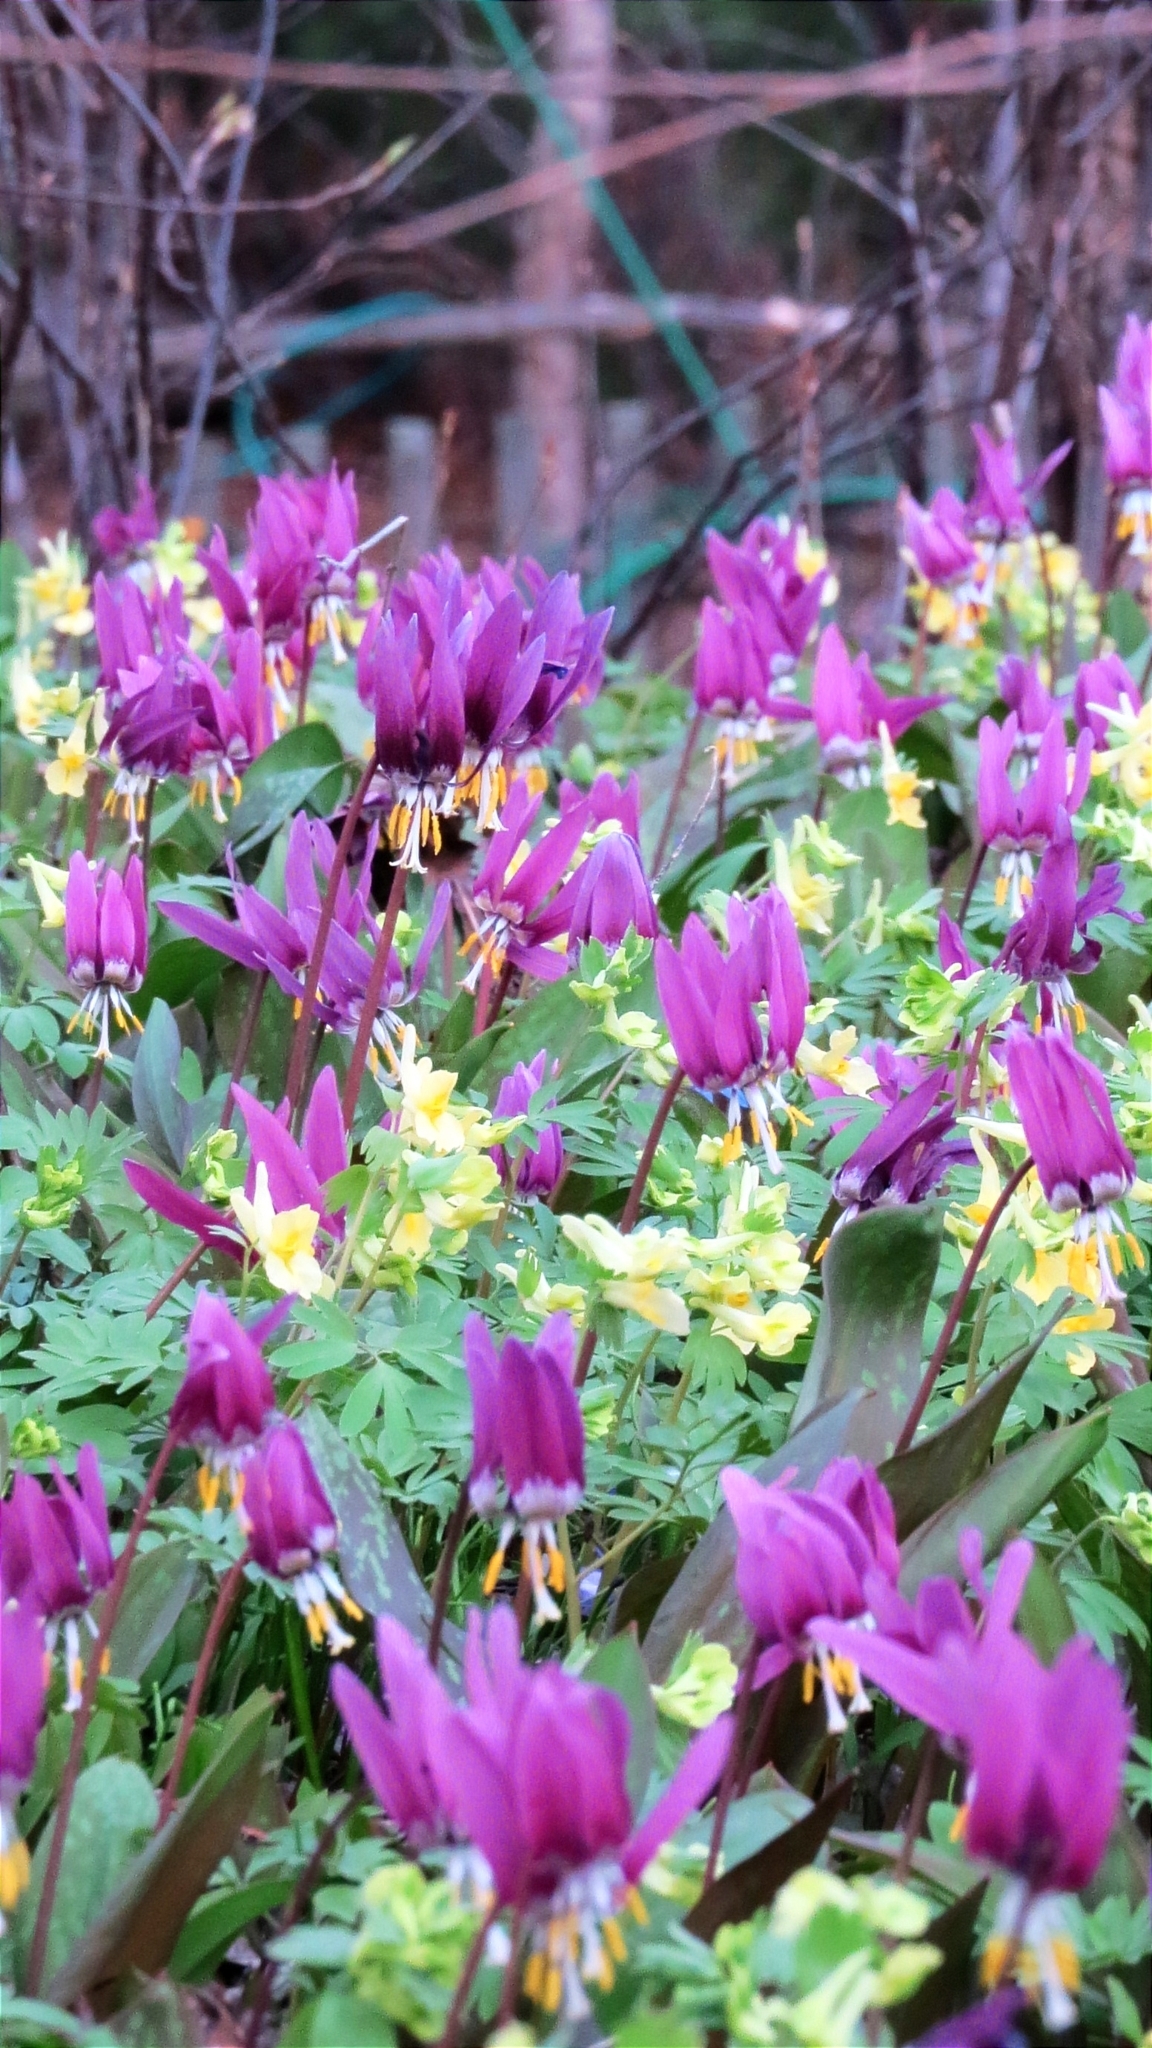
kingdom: Plantae
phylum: Tracheophyta
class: Liliopsida
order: Liliales
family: Liliaceae
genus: Erythronium
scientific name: Erythronium sibiricum
